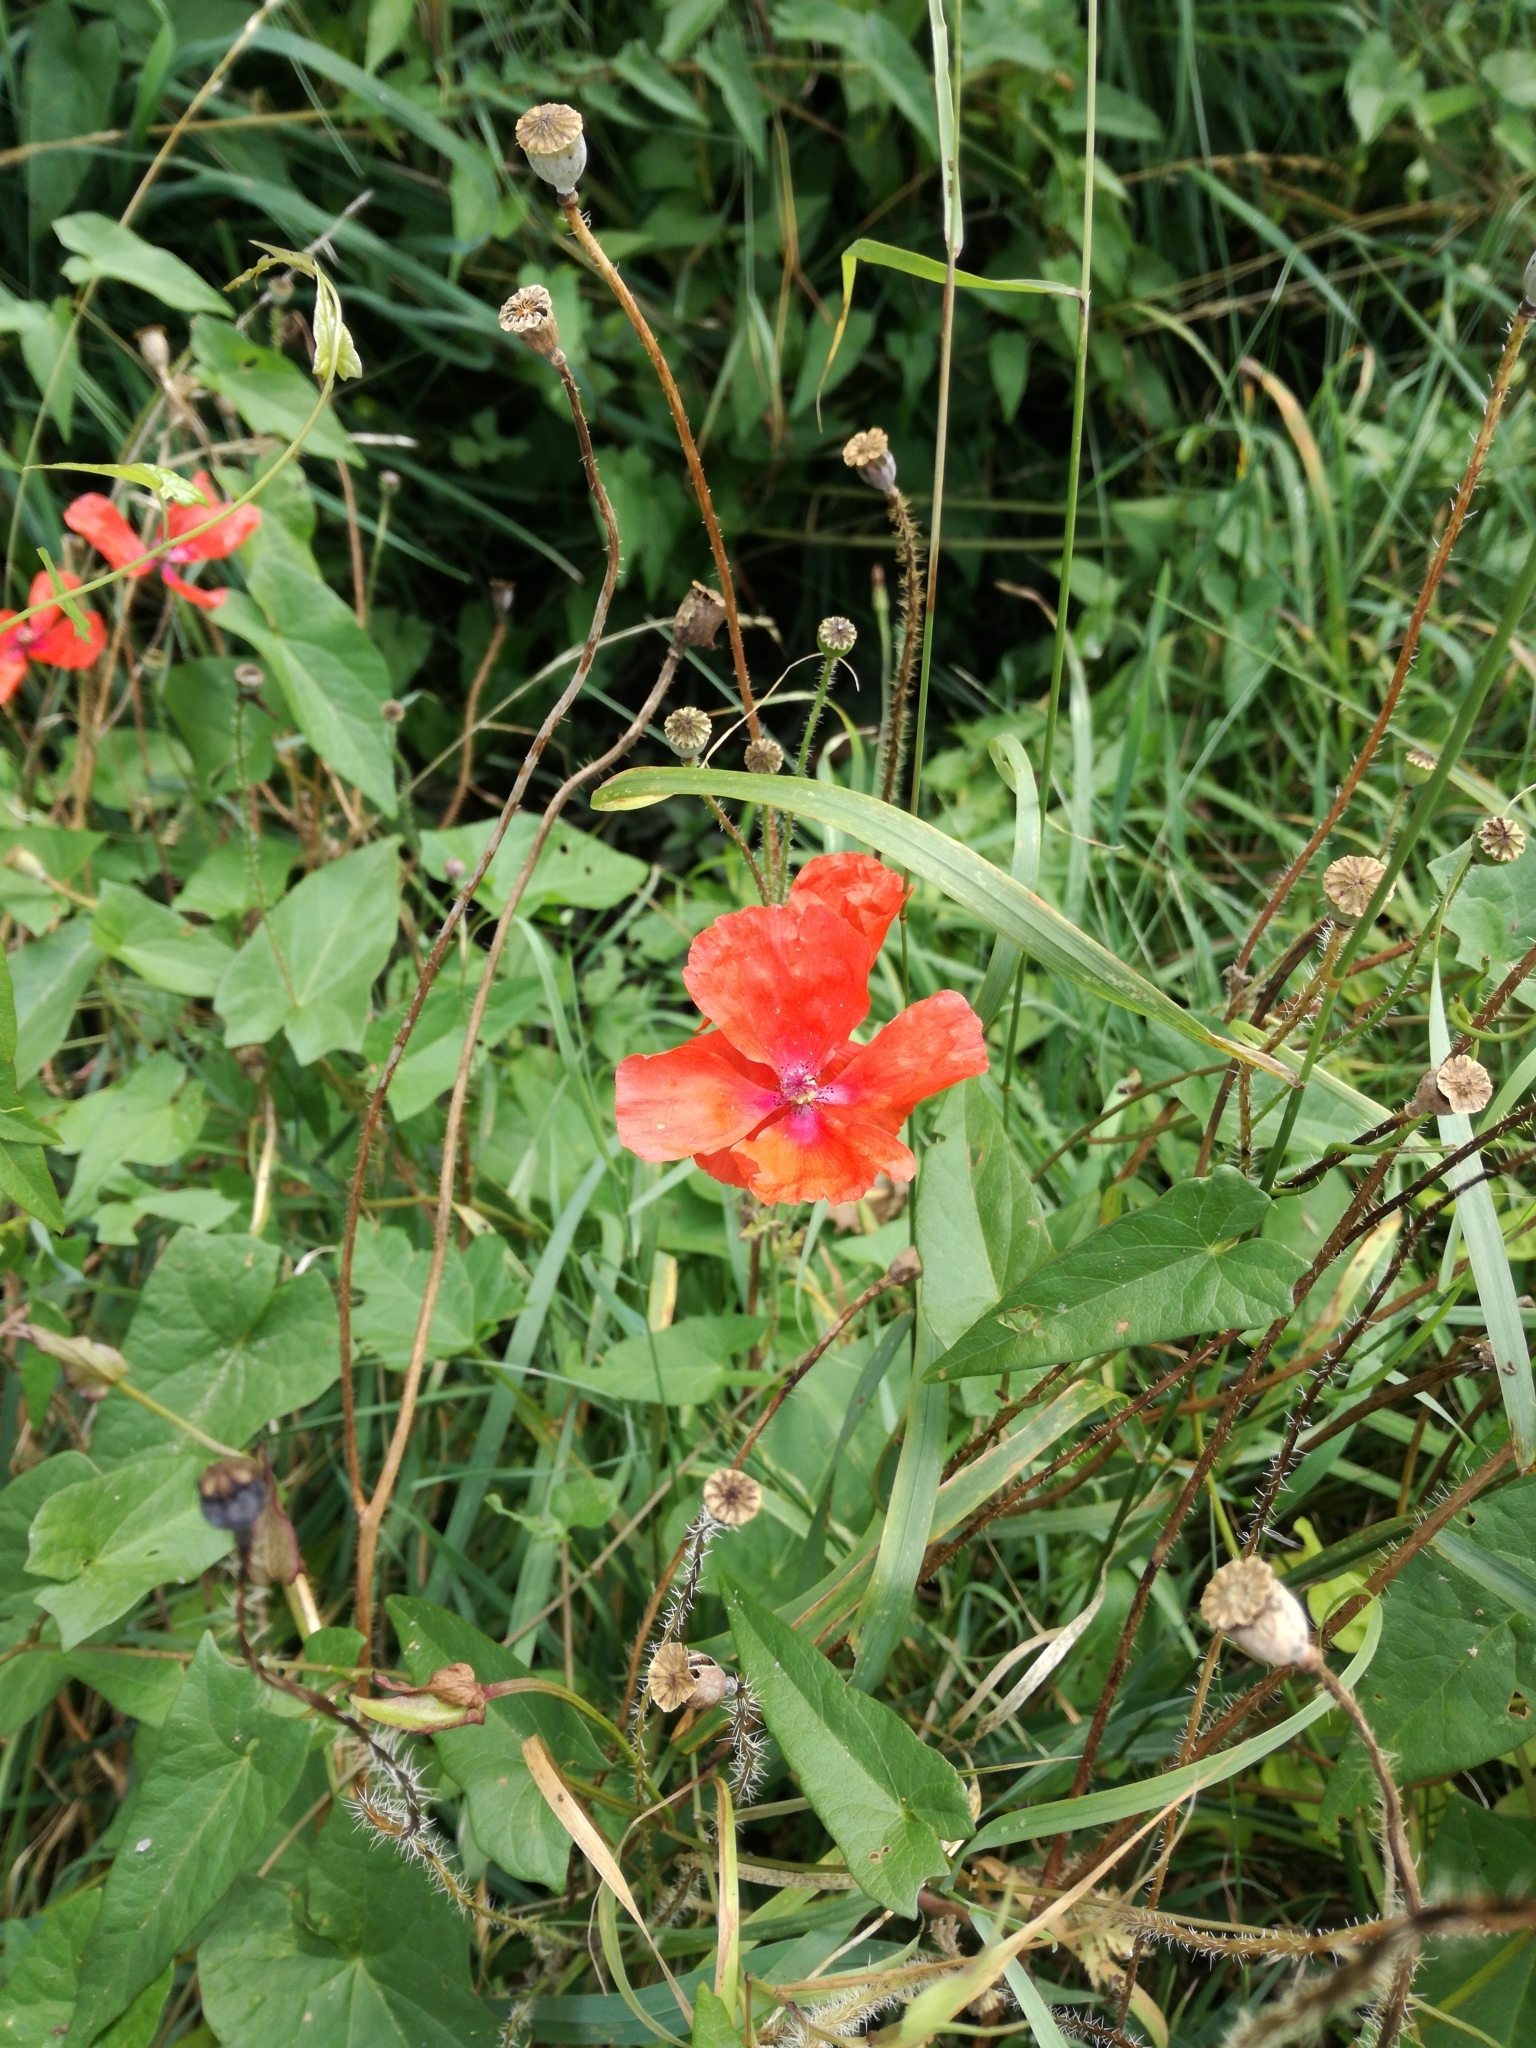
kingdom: Plantae
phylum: Tracheophyta
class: Magnoliopsida
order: Ranunculales
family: Papaveraceae
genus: Papaver
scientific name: Papaver rhoeas
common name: Corn poppy
